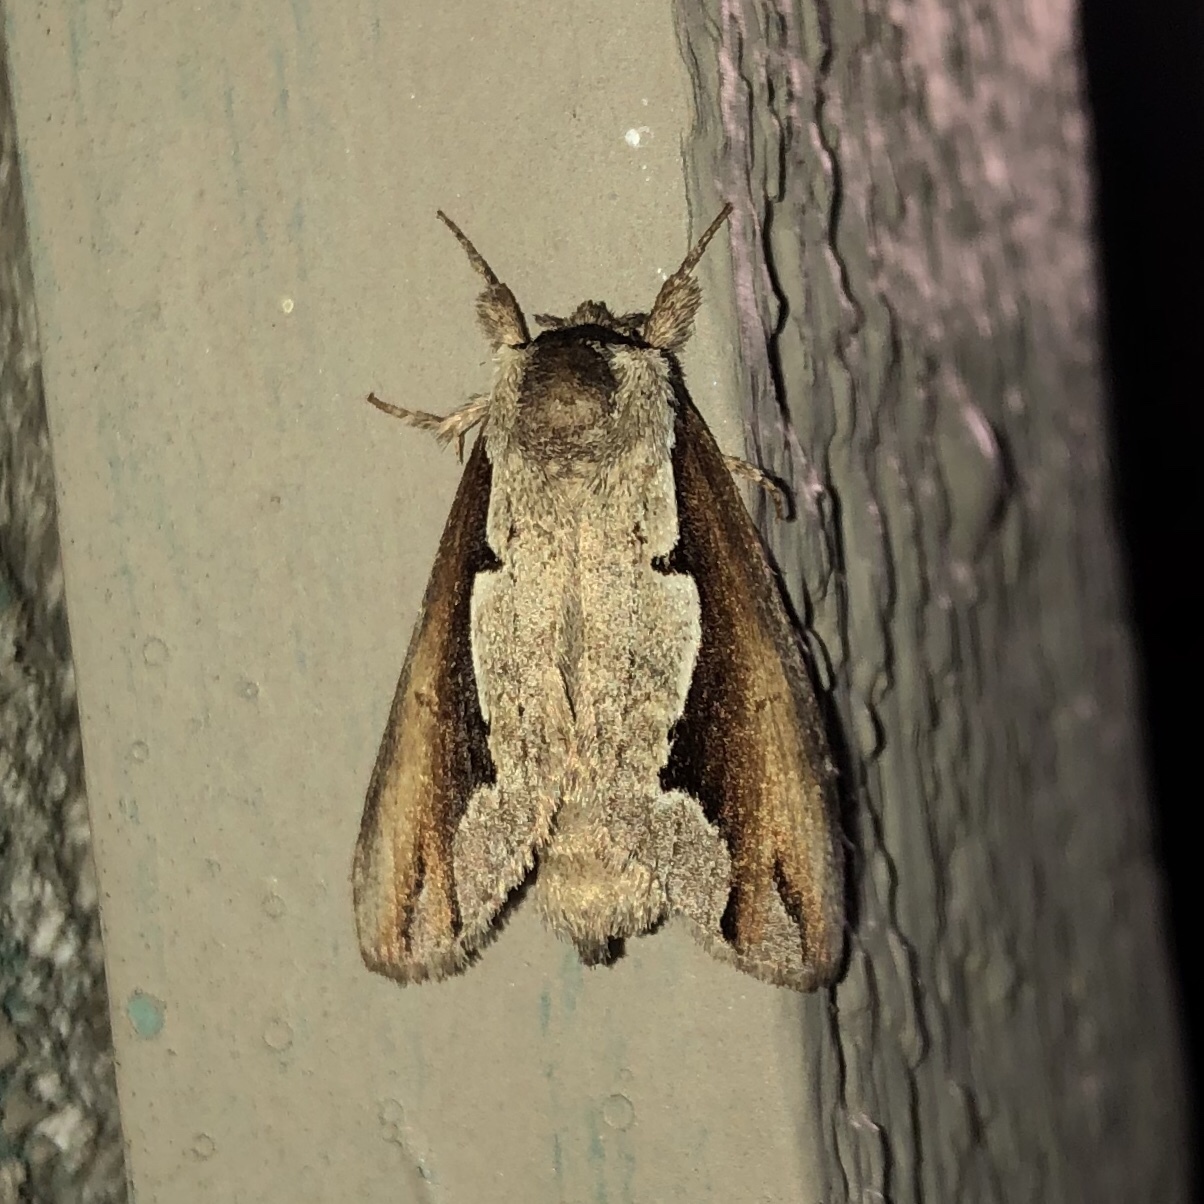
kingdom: Animalia
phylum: Arthropoda
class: Insecta
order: Lepidoptera
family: Notodontidae
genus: Nerice
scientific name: Nerice bidentata
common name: Double-toothed prominent
